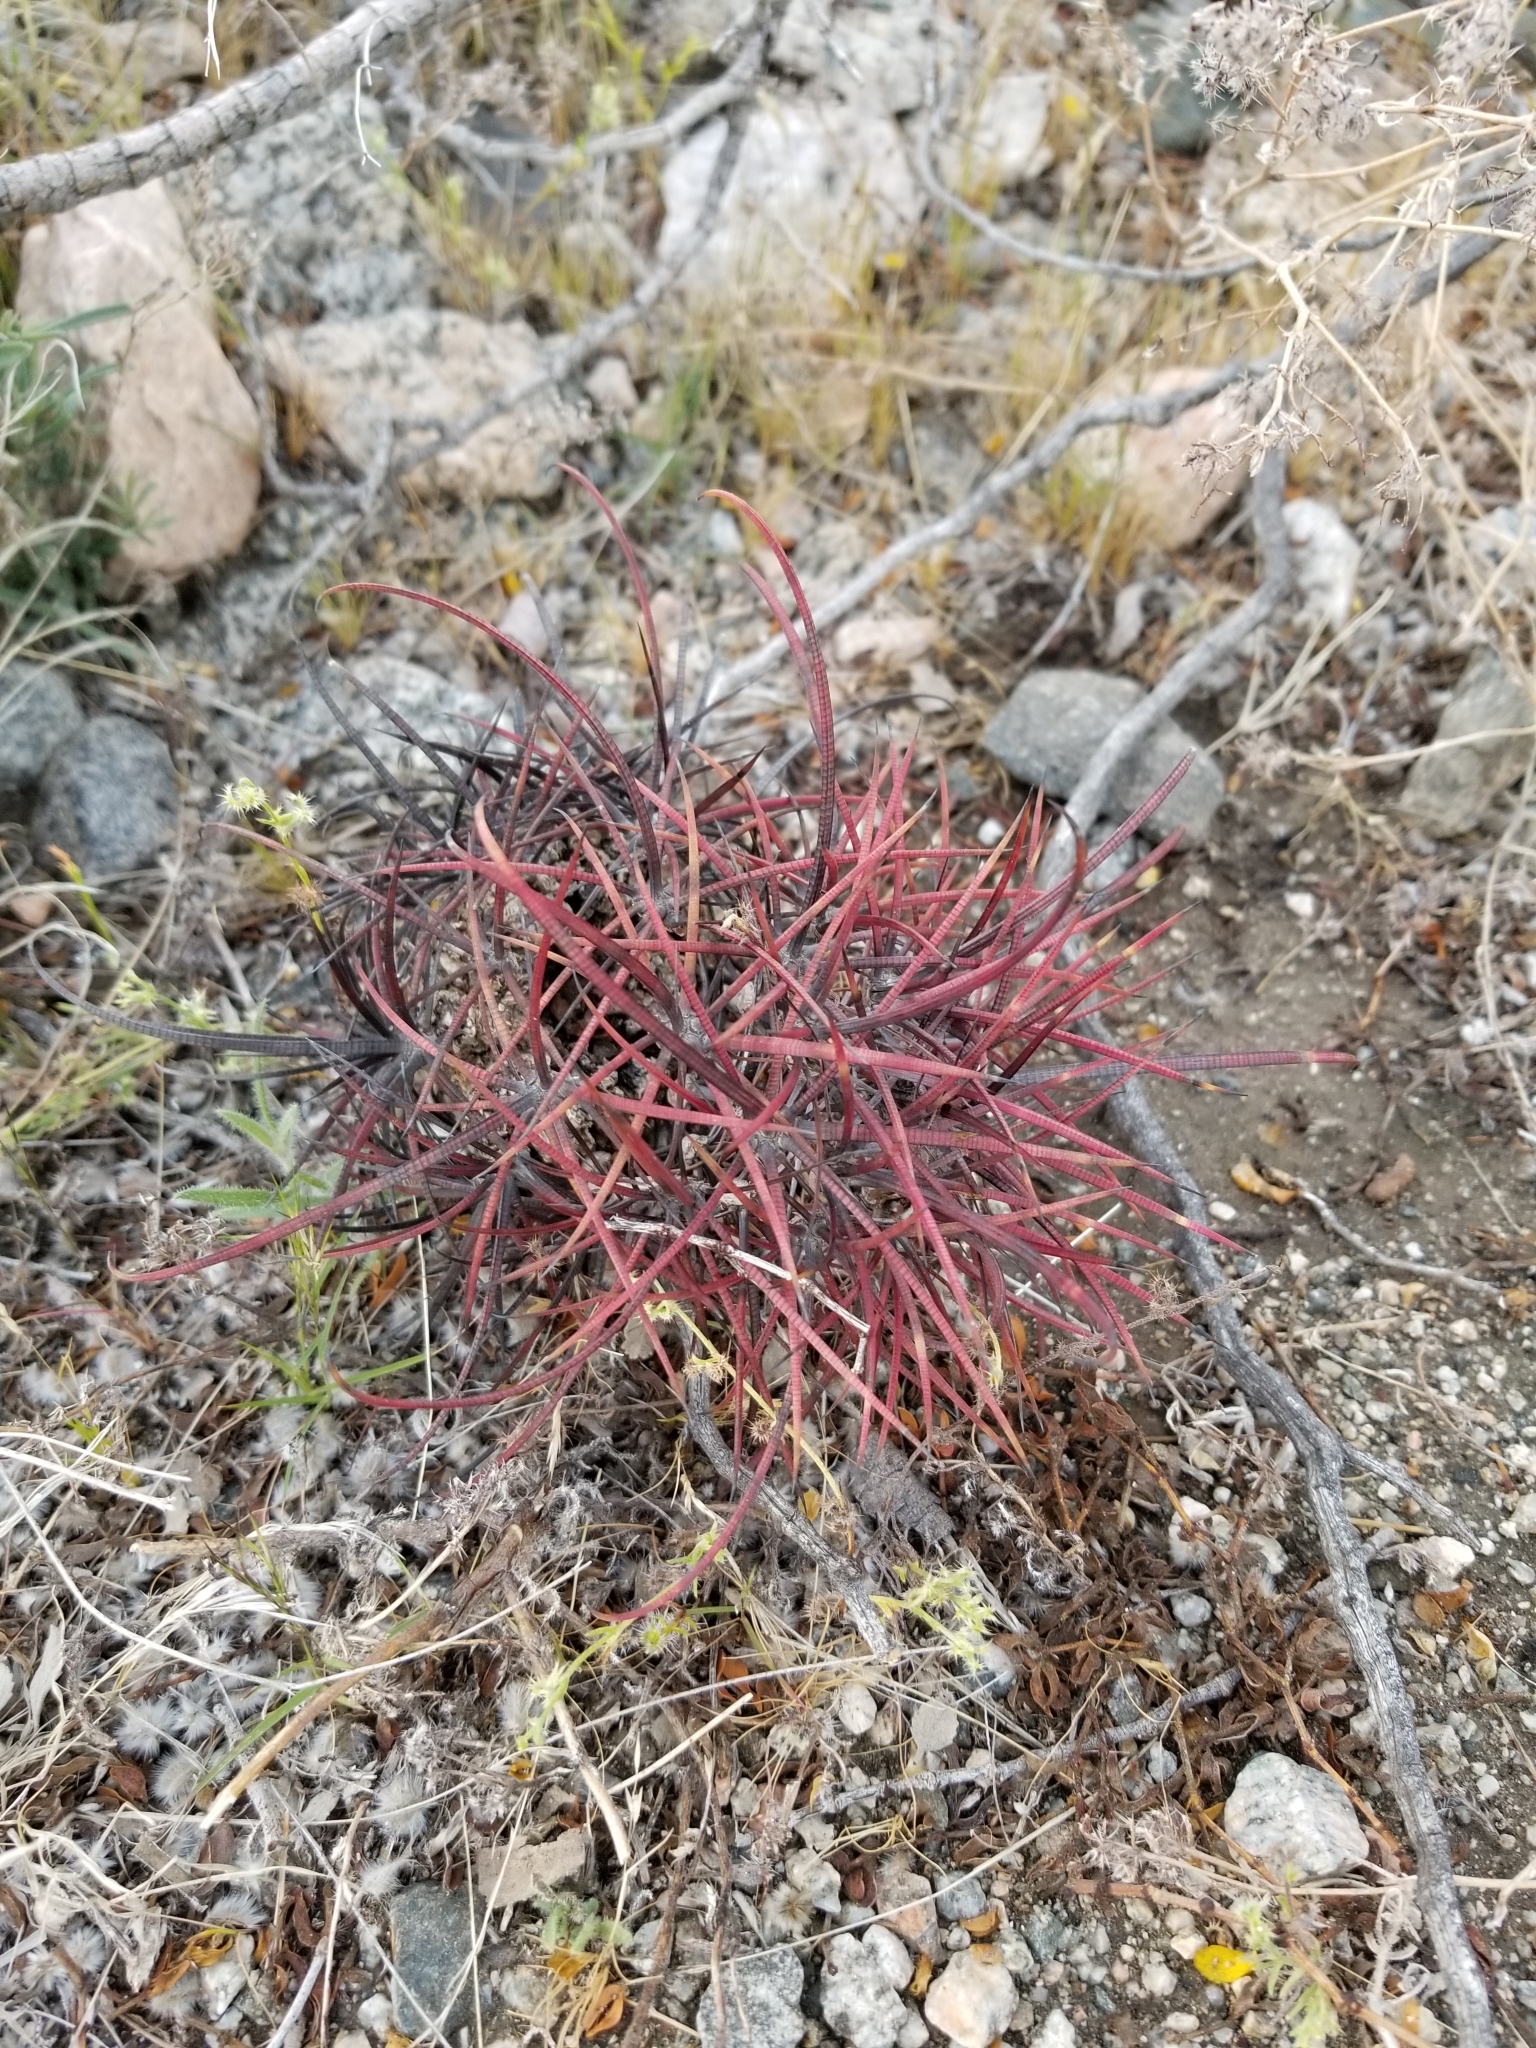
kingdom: Plantae
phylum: Tracheophyta
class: Magnoliopsida
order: Caryophyllales
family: Cactaceae
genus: Ferocactus
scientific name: Ferocactus cylindraceus
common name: California barrel cactus
